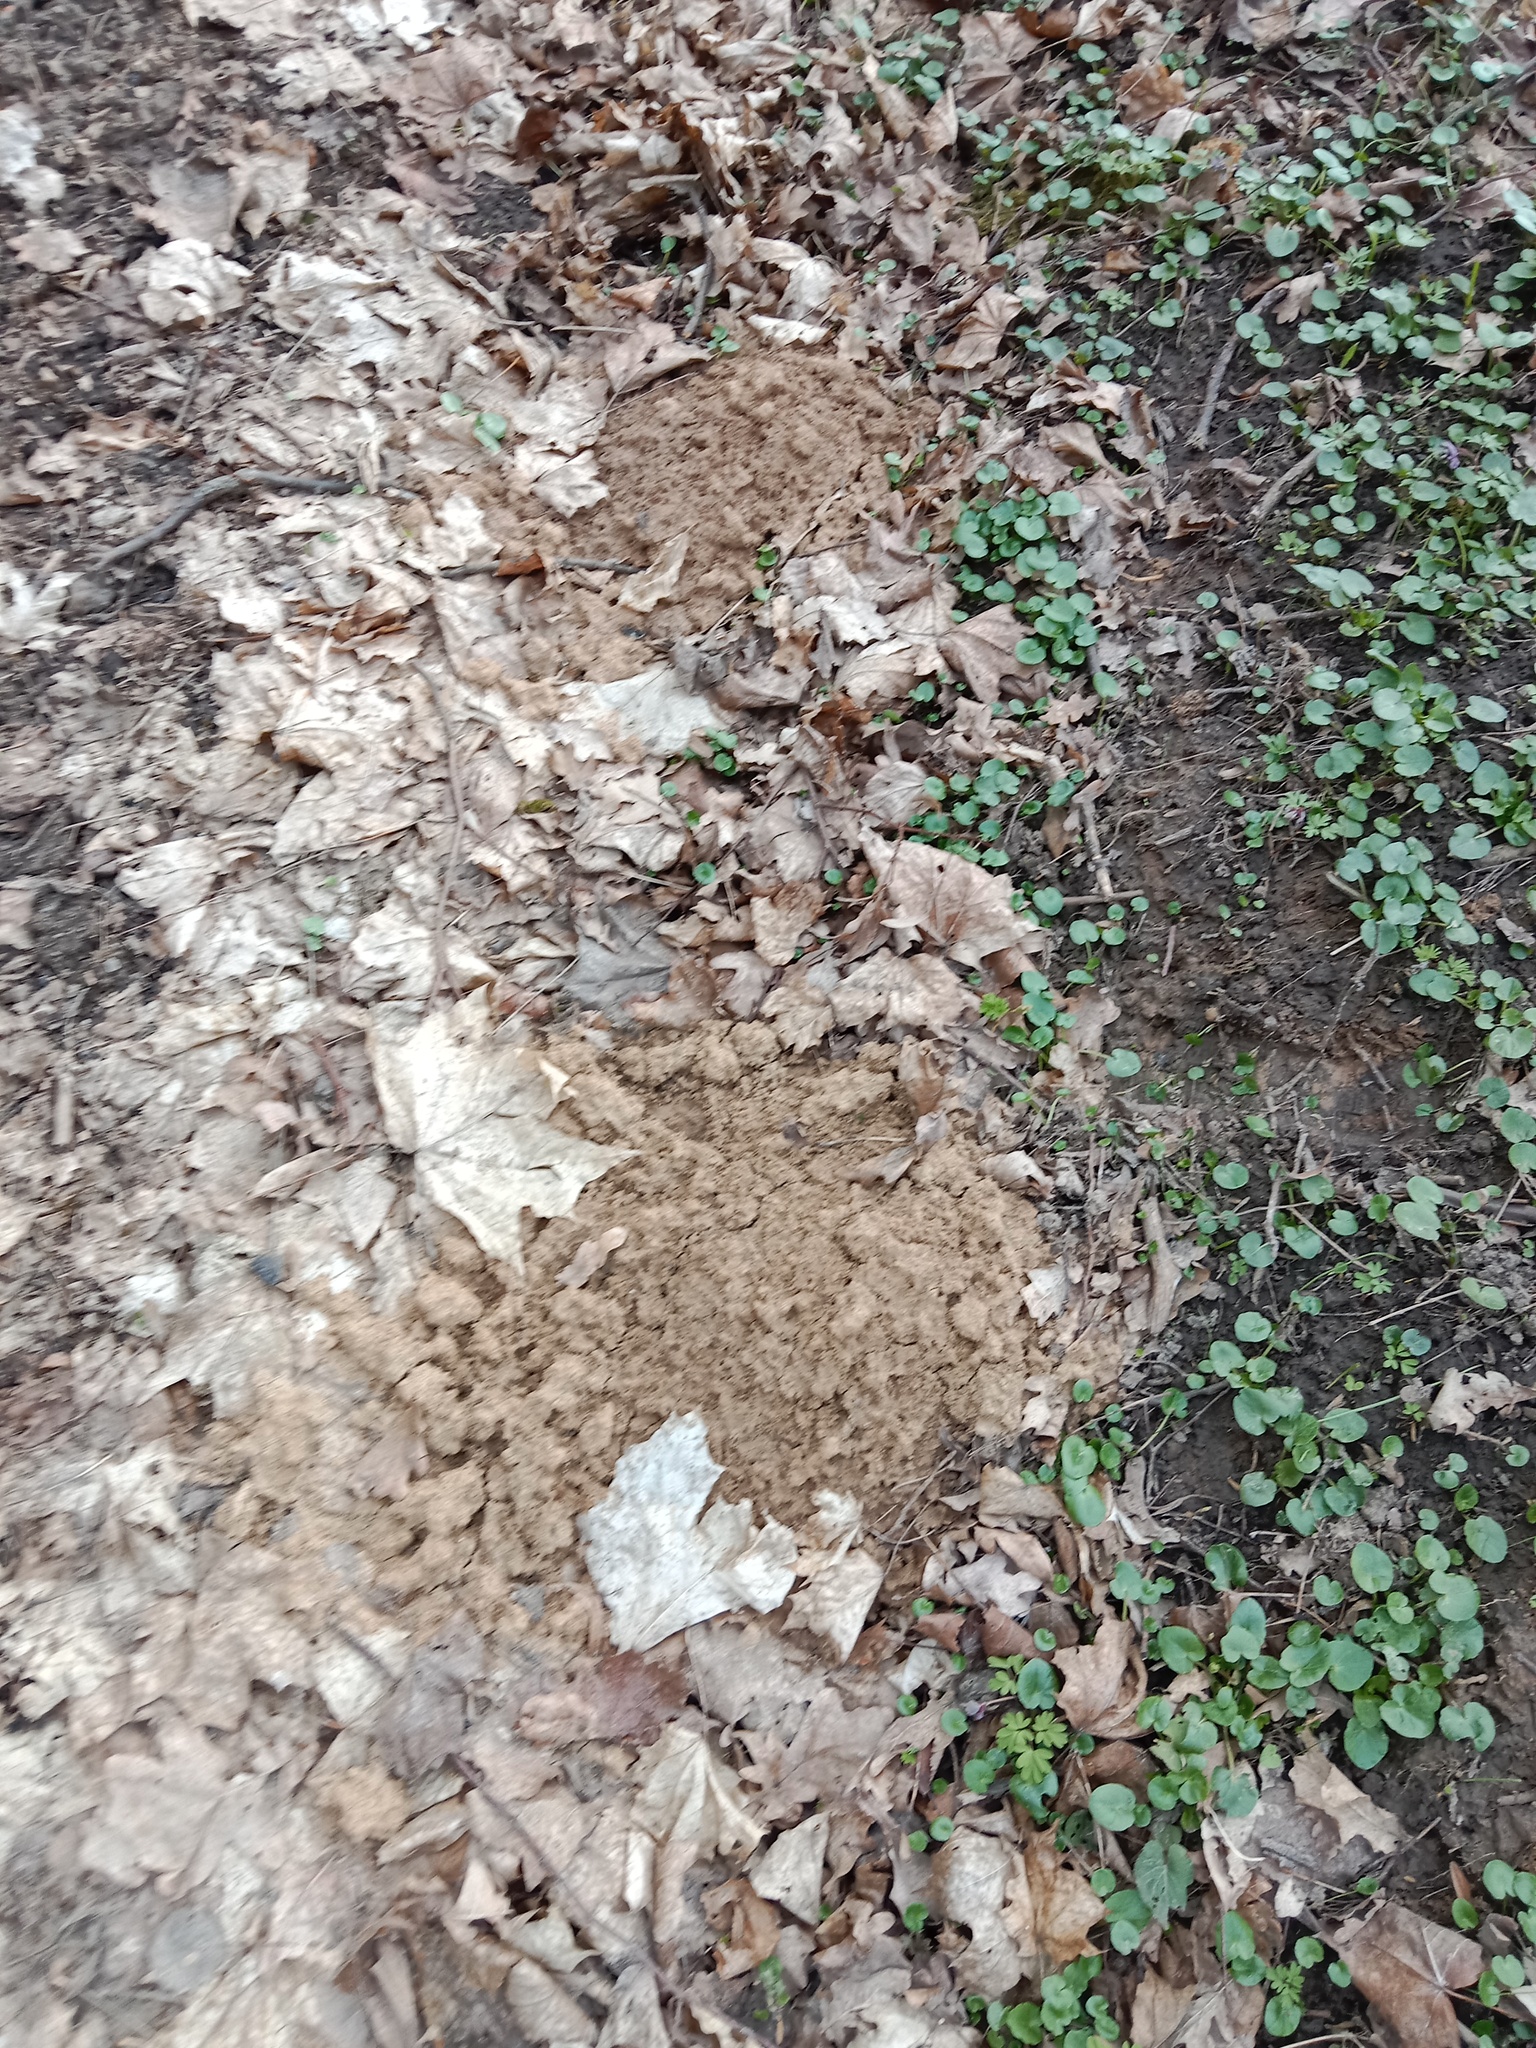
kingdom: Animalia
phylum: Chordata
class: Mammalia
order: Soricomorpha
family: Talpidae
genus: Talpa
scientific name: Talpa europaea
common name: European mole
